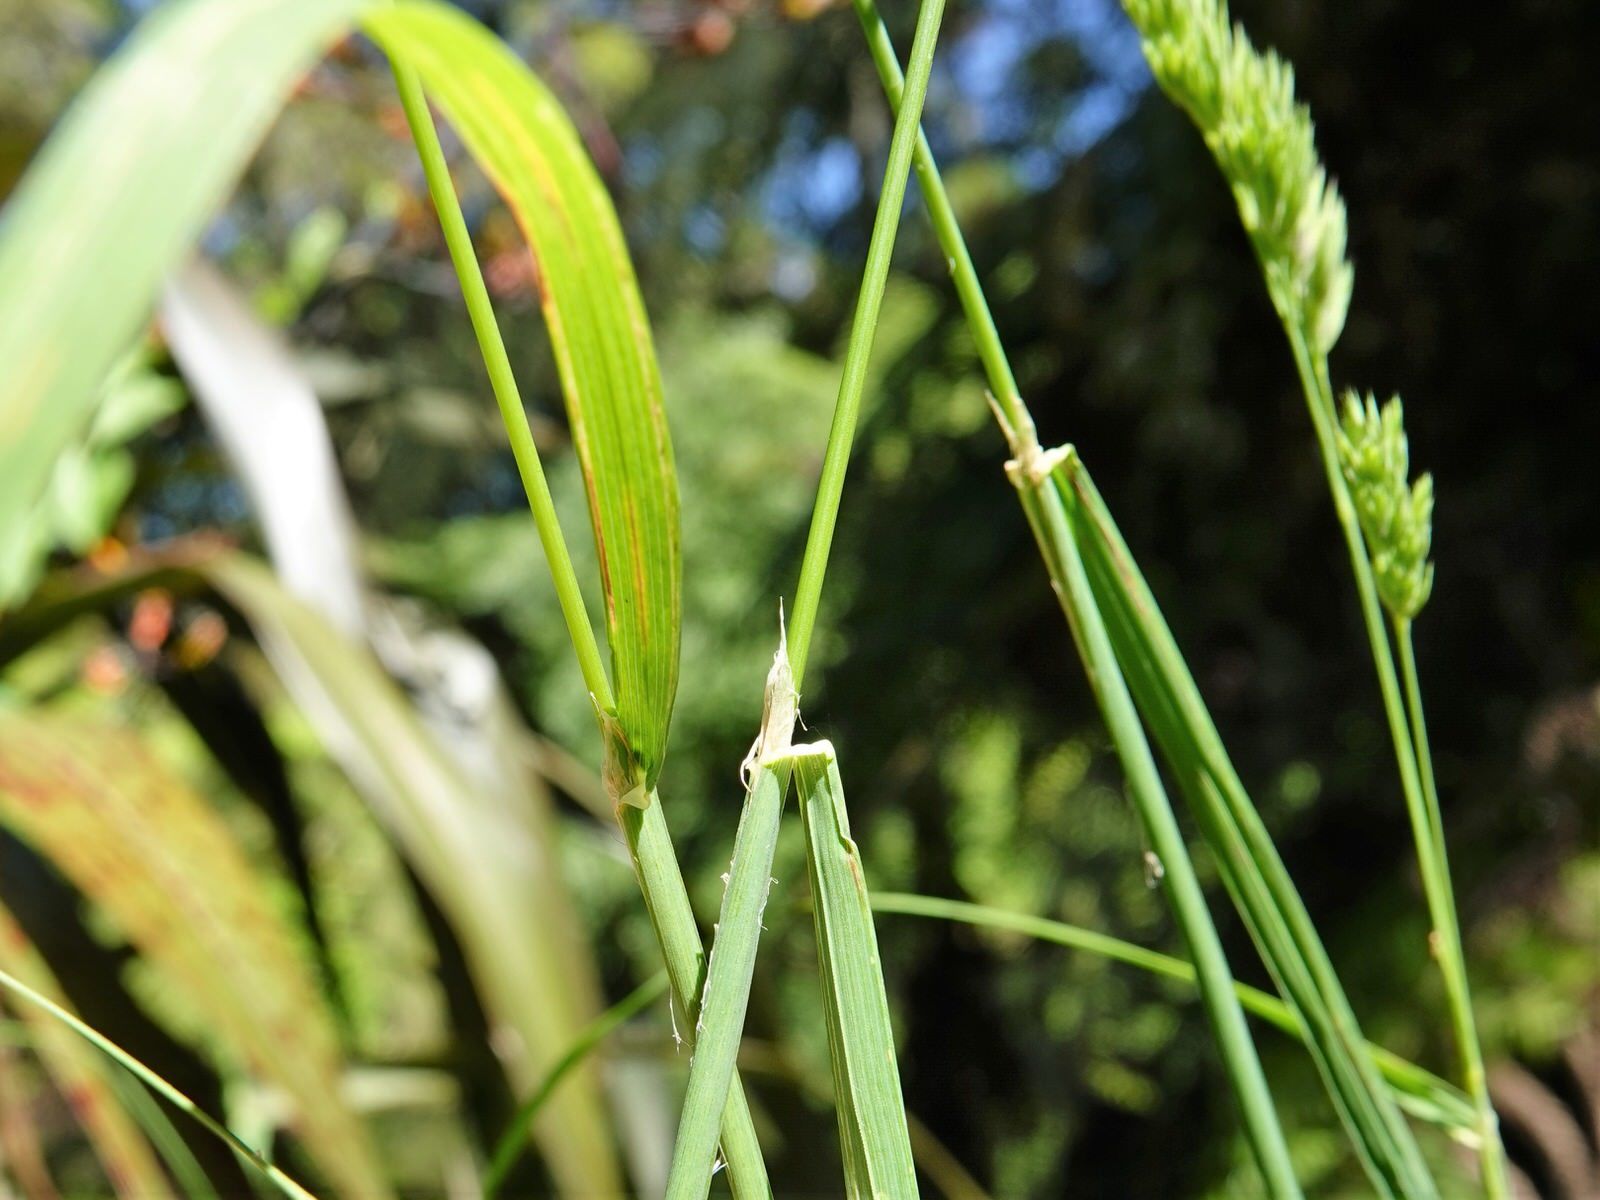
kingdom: Plantae
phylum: Tracheophyta
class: Liliopsida
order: Poales
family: Poaceae
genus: Dactylis
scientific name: Dactylis glomerata
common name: Orchardgrass
